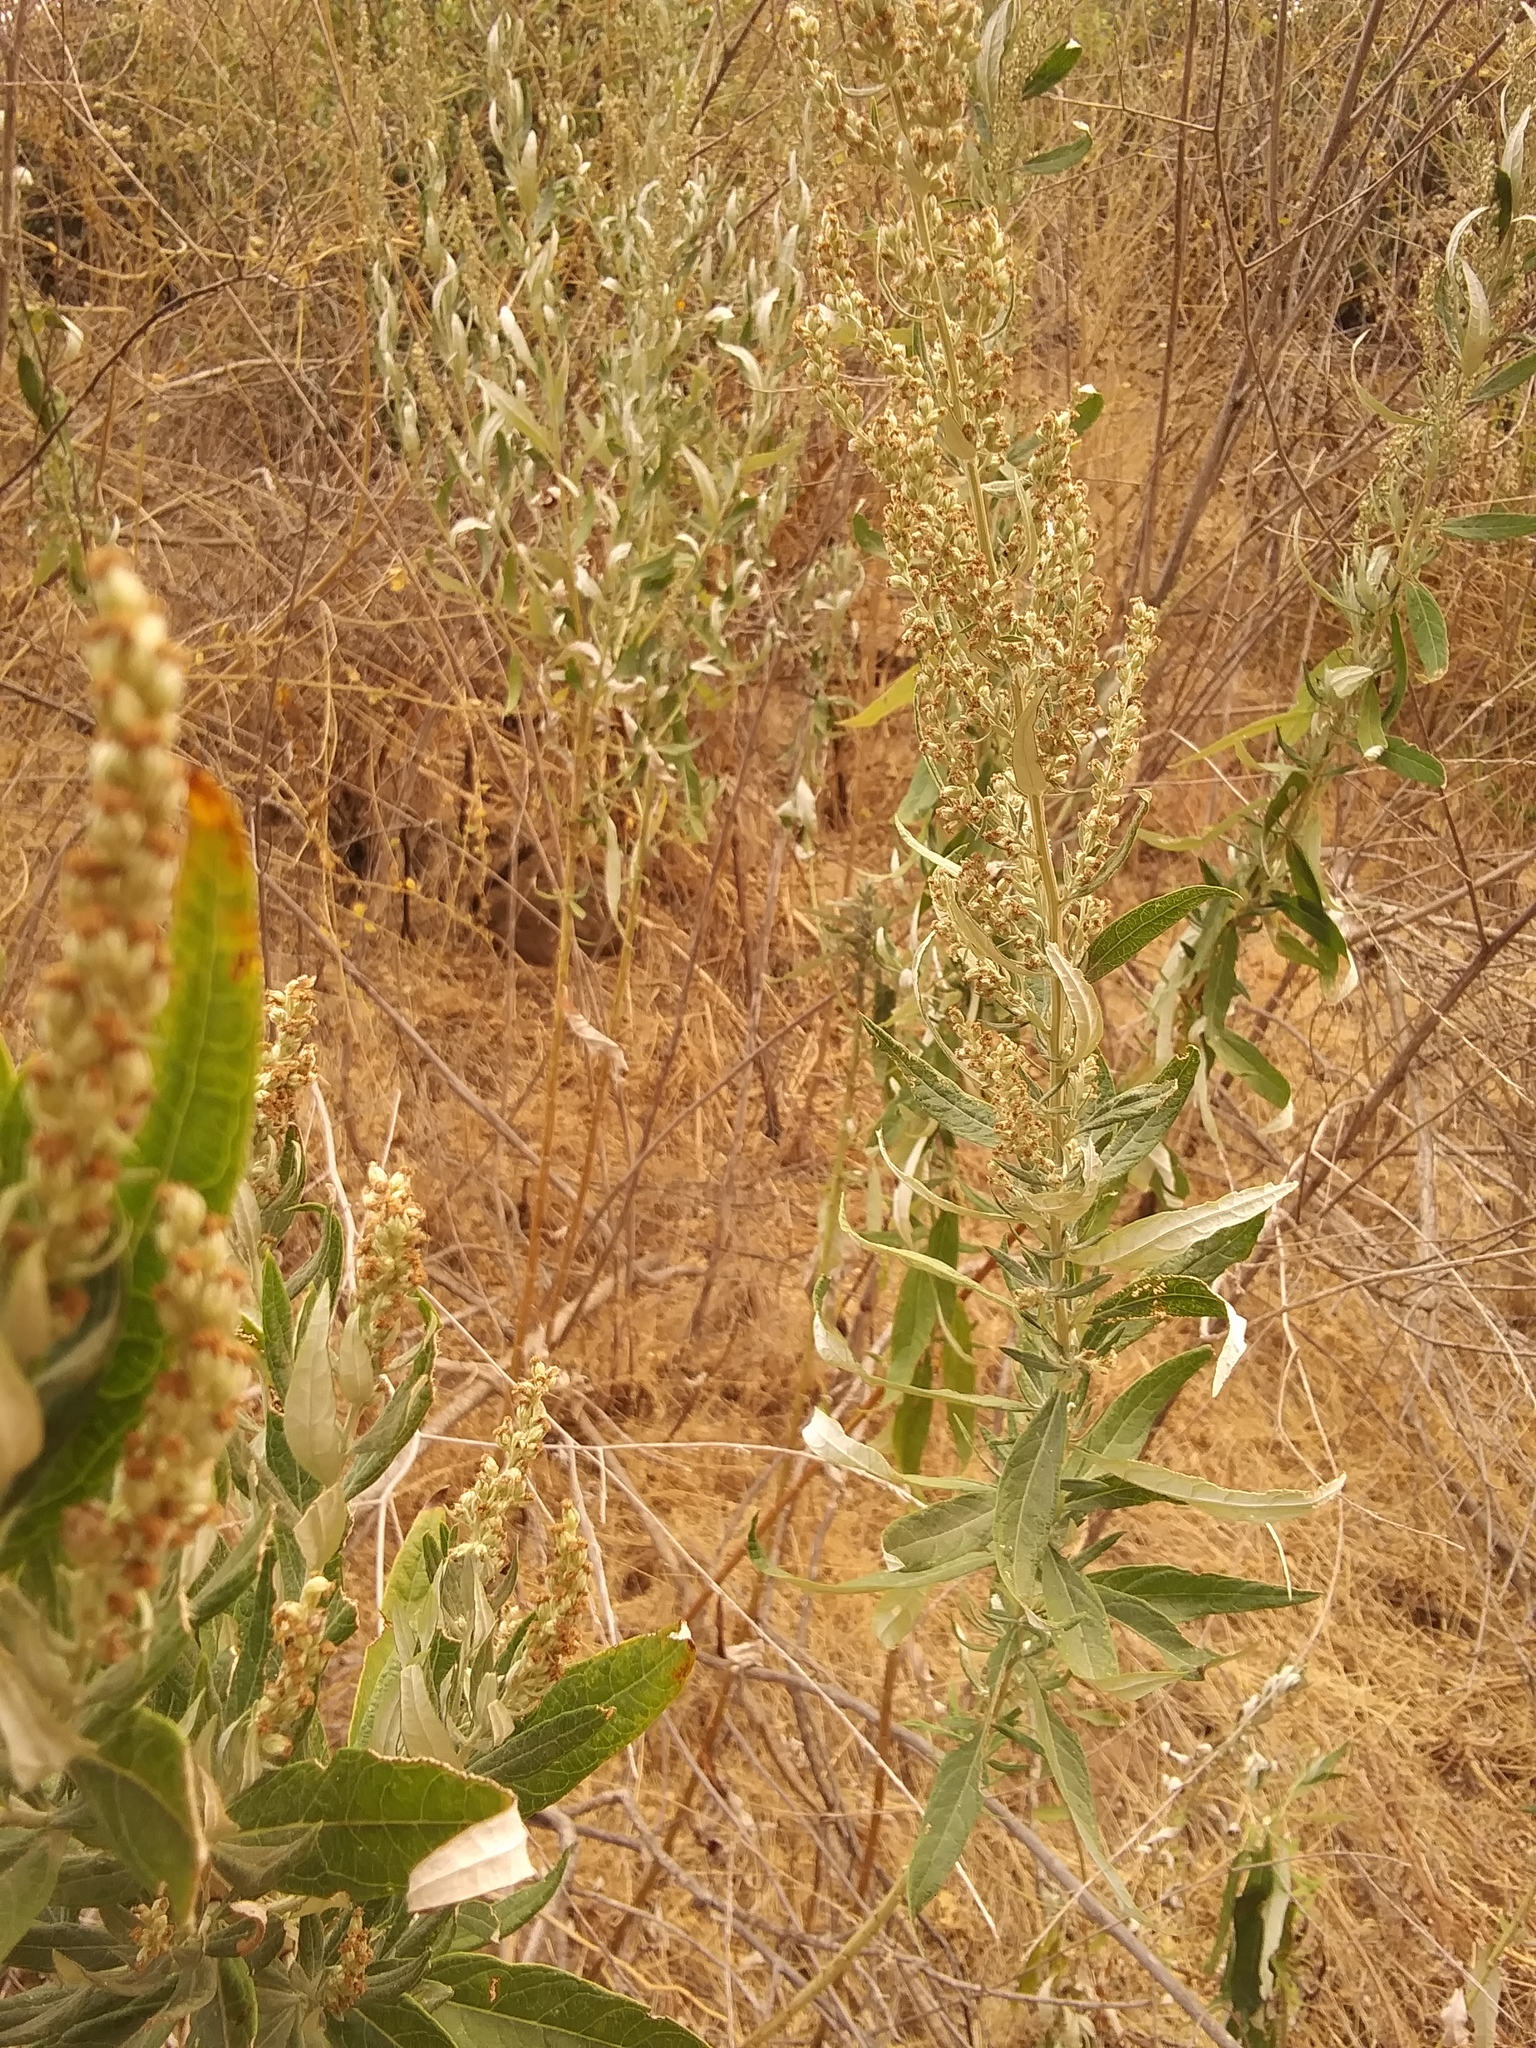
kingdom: Plantae
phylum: Tracheophyta
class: Magnoliopsida
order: Asterales
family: Asteraceae
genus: Artemisia
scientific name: Artemisia douglasiana
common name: Northwest mugwort
